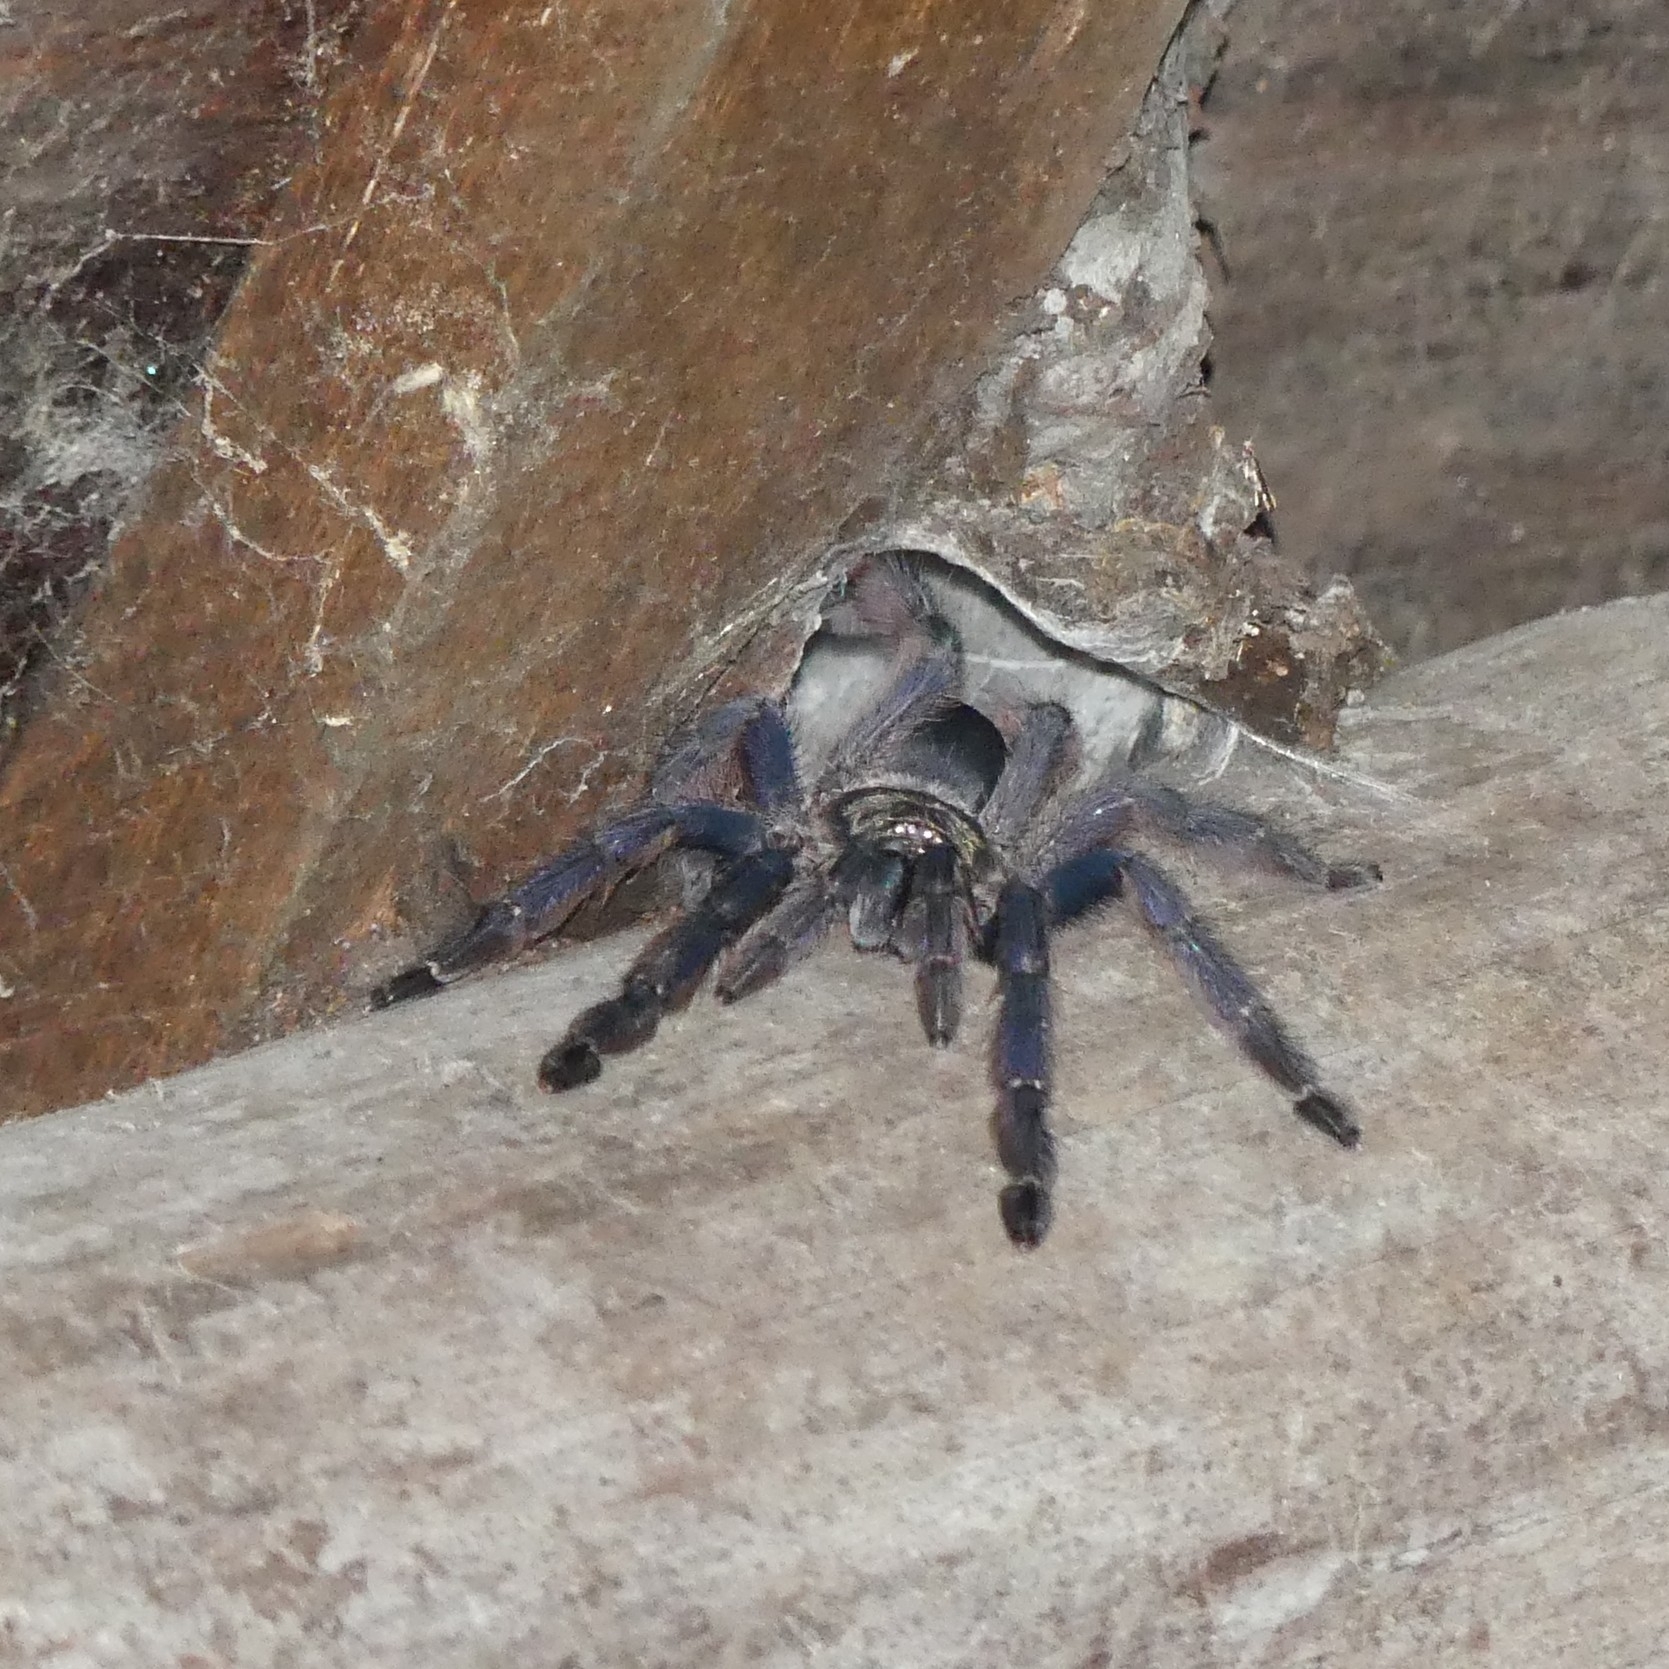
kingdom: Animalia
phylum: Arthropoda
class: Arachnida
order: Araneae
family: Theraphosidae
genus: Tapinauchenius
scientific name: Tapinauchenius plumipes
